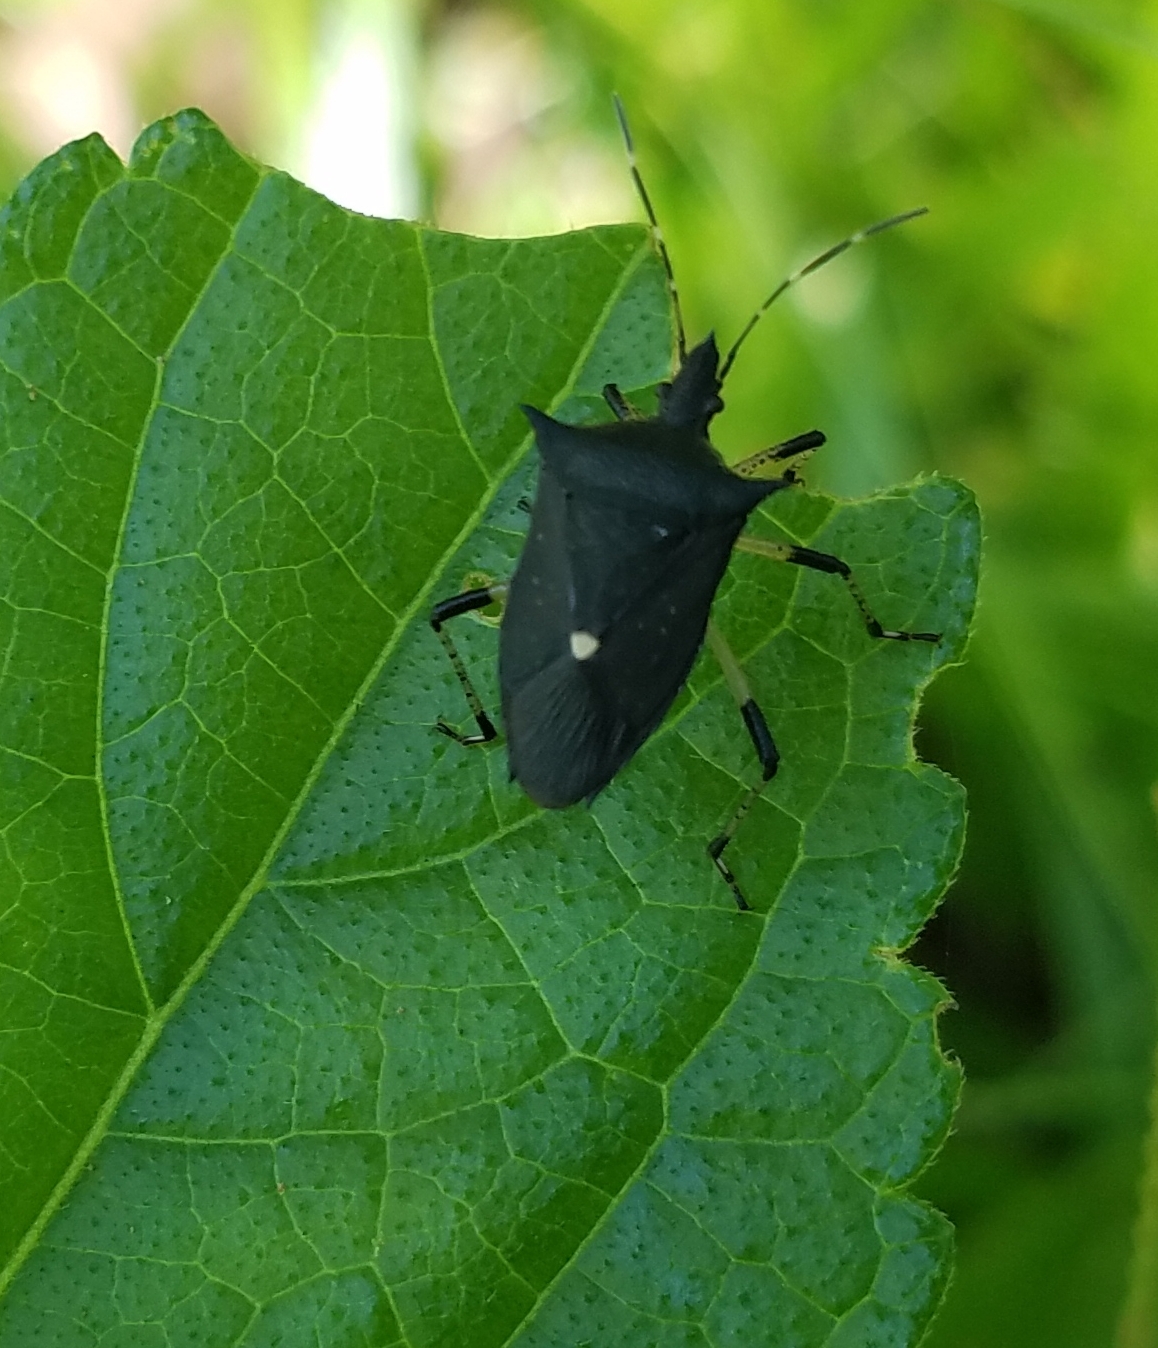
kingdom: Animalia
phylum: Arthropoda
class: Insecta
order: Hemiptera
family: Pentatomidae
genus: Proxys
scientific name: Proxys punctulatus
